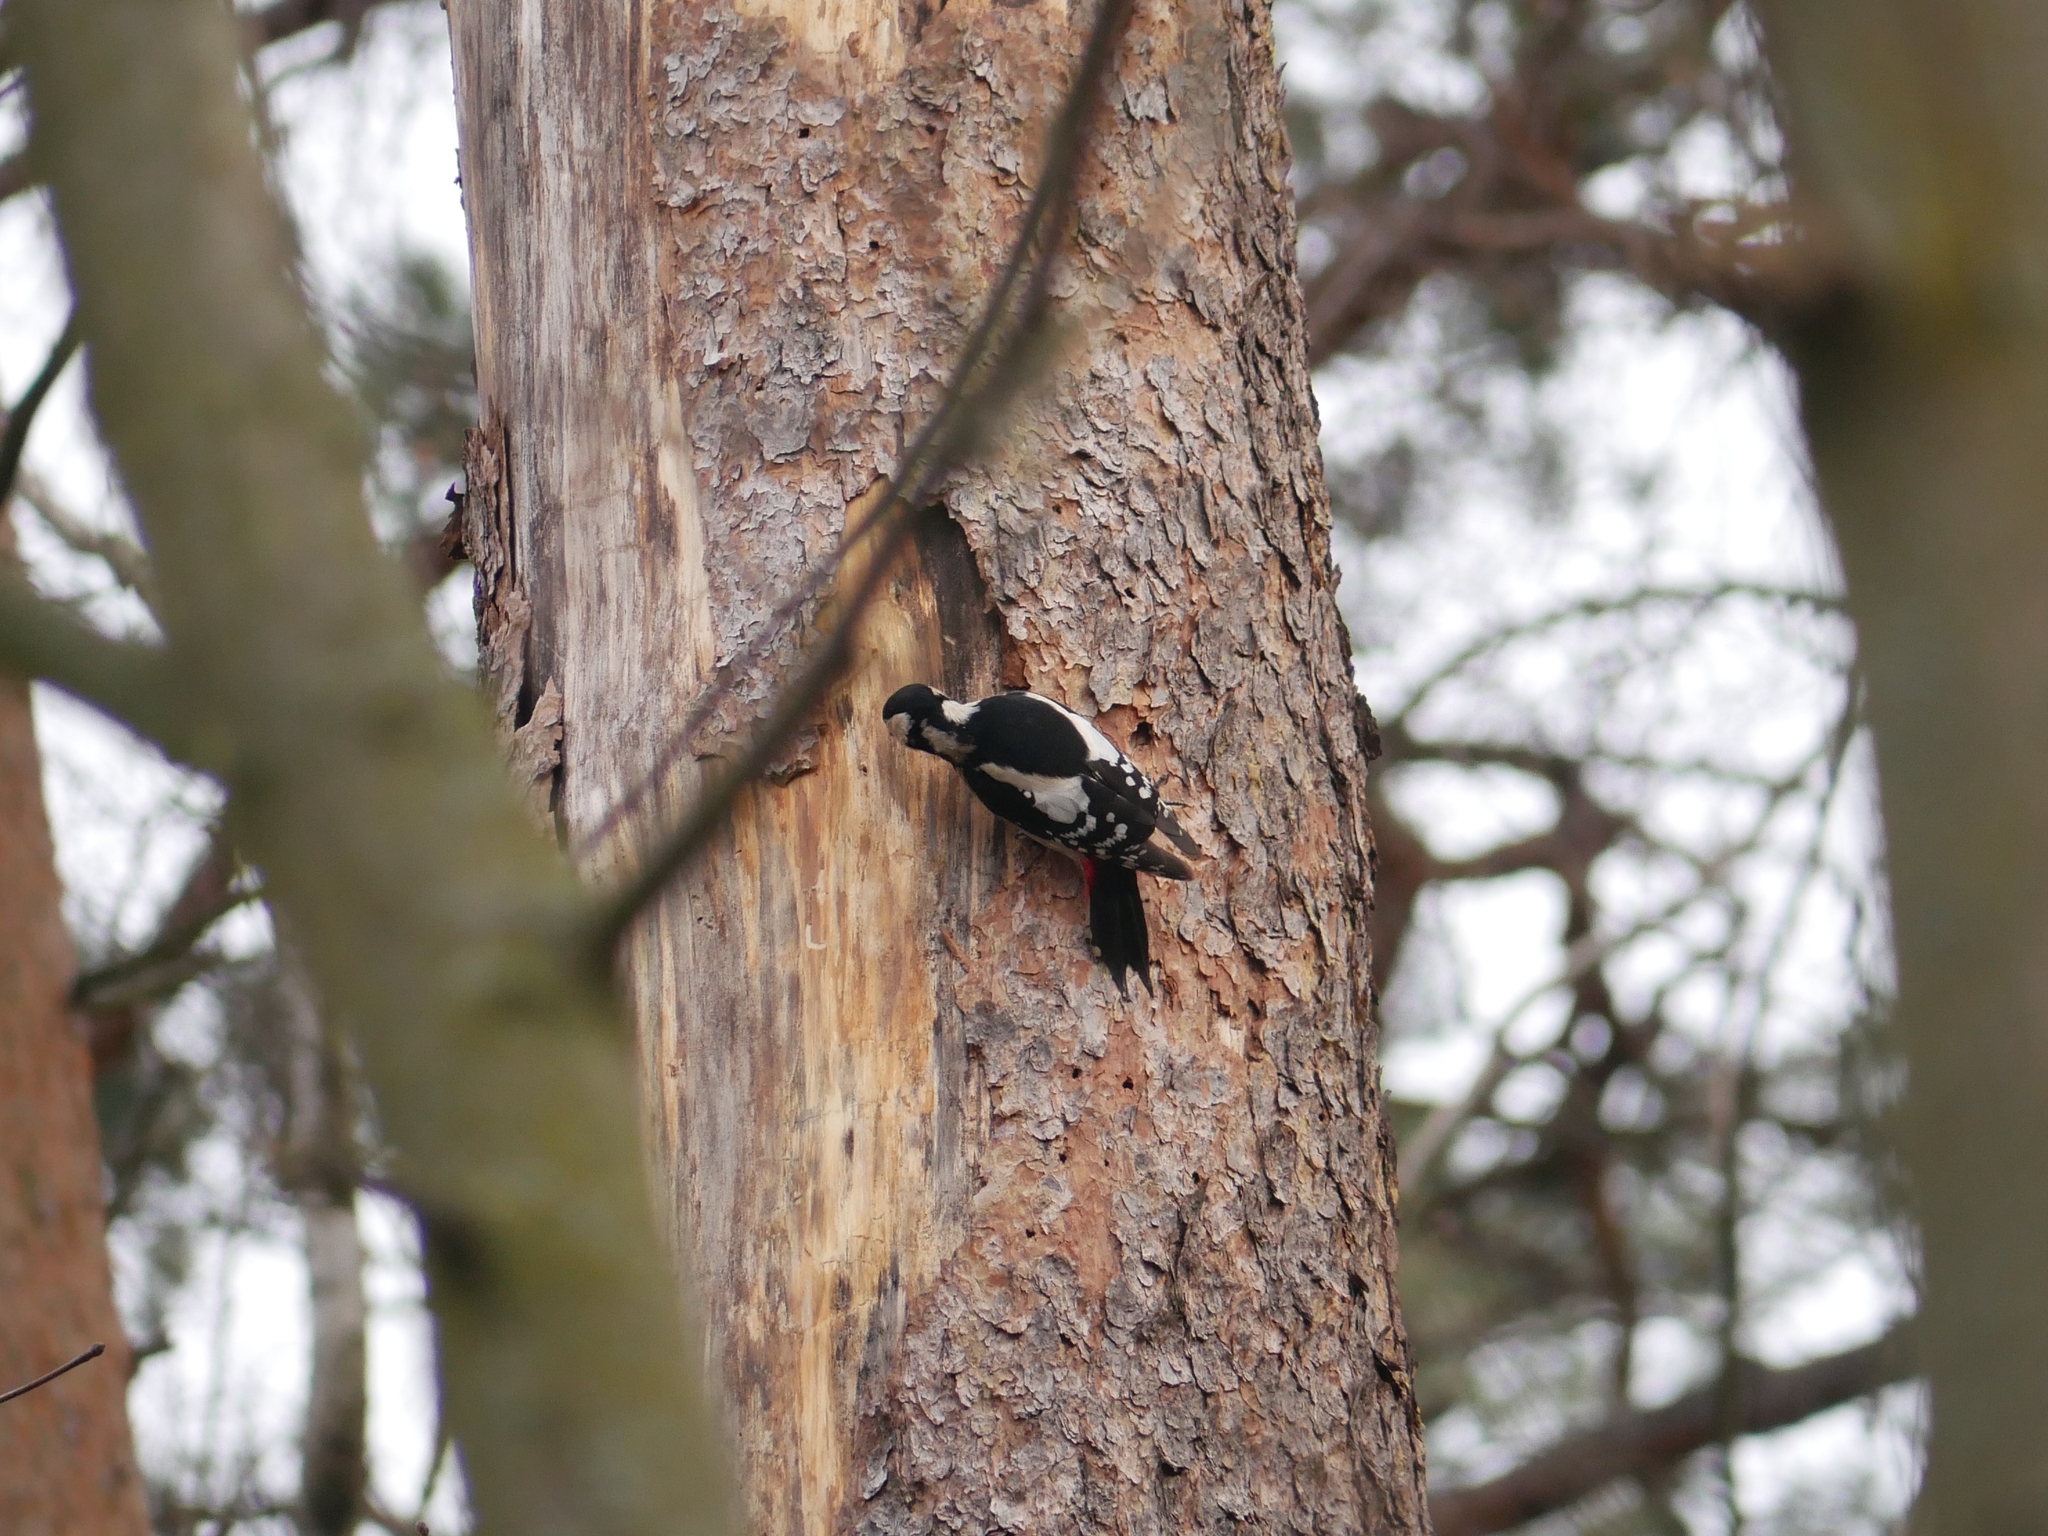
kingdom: Animalia
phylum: Chordata
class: Aves
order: Piciformes
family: Picidae
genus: Dendrocopos
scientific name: Dendrocopos major
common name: Great spotted woodpecker
